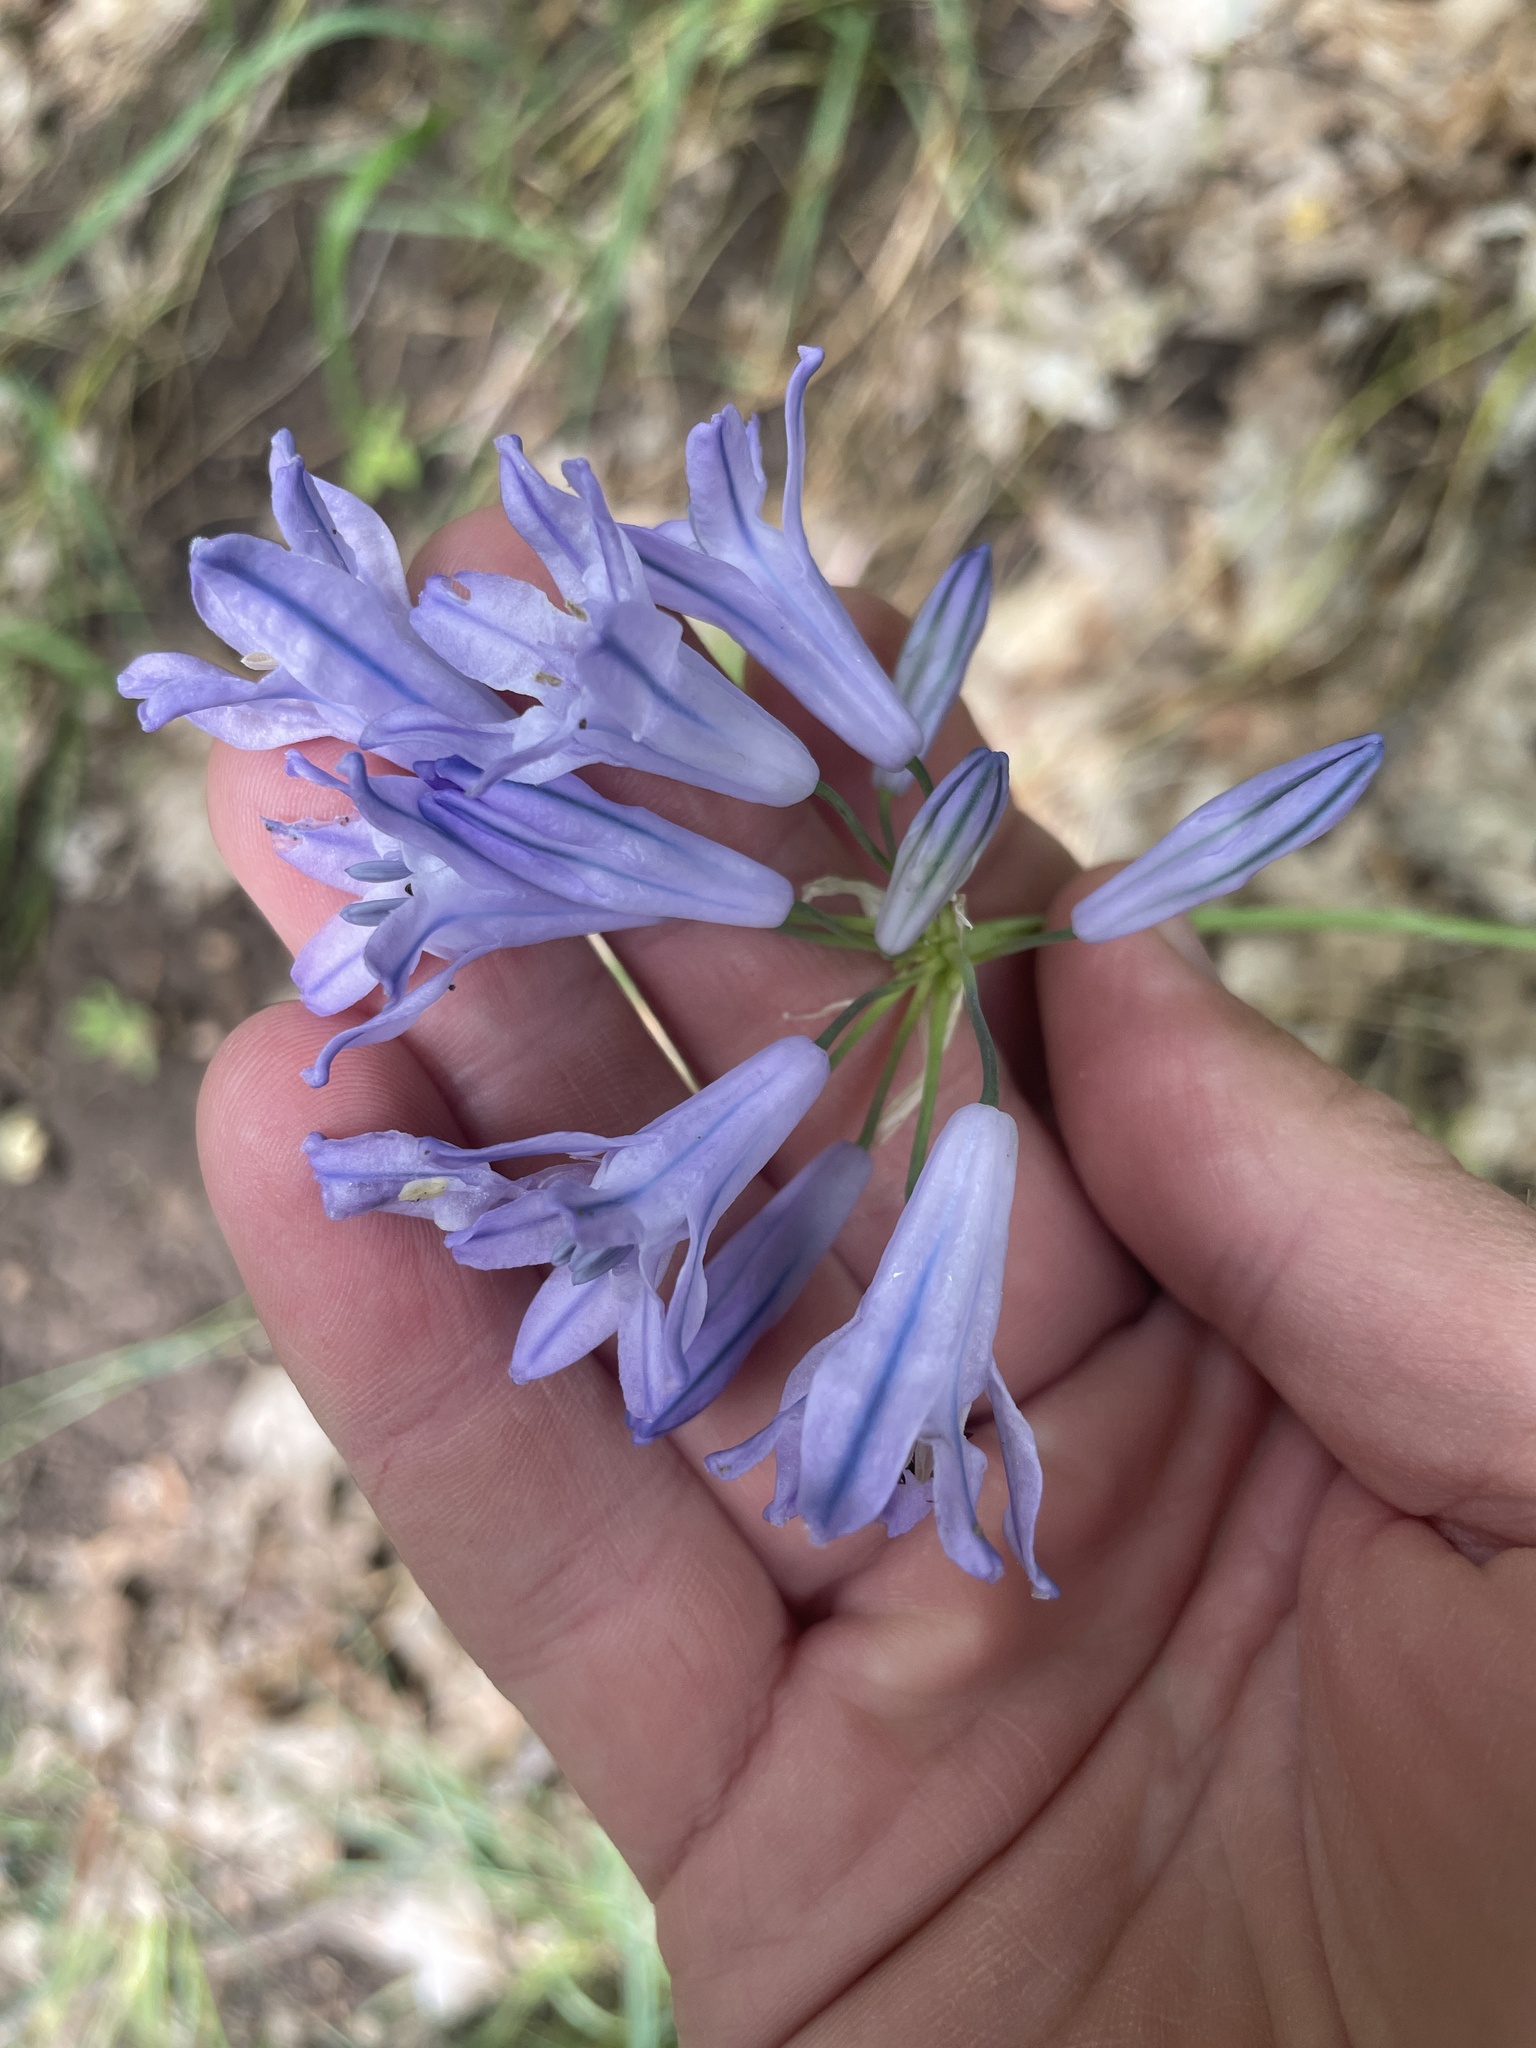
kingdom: Plantae
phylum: Tracheophyta
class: Liliopsida
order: Asparagales
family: Asparagaceae
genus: Triteleia
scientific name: Triteleia grandiflora
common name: Wild hyacinth
